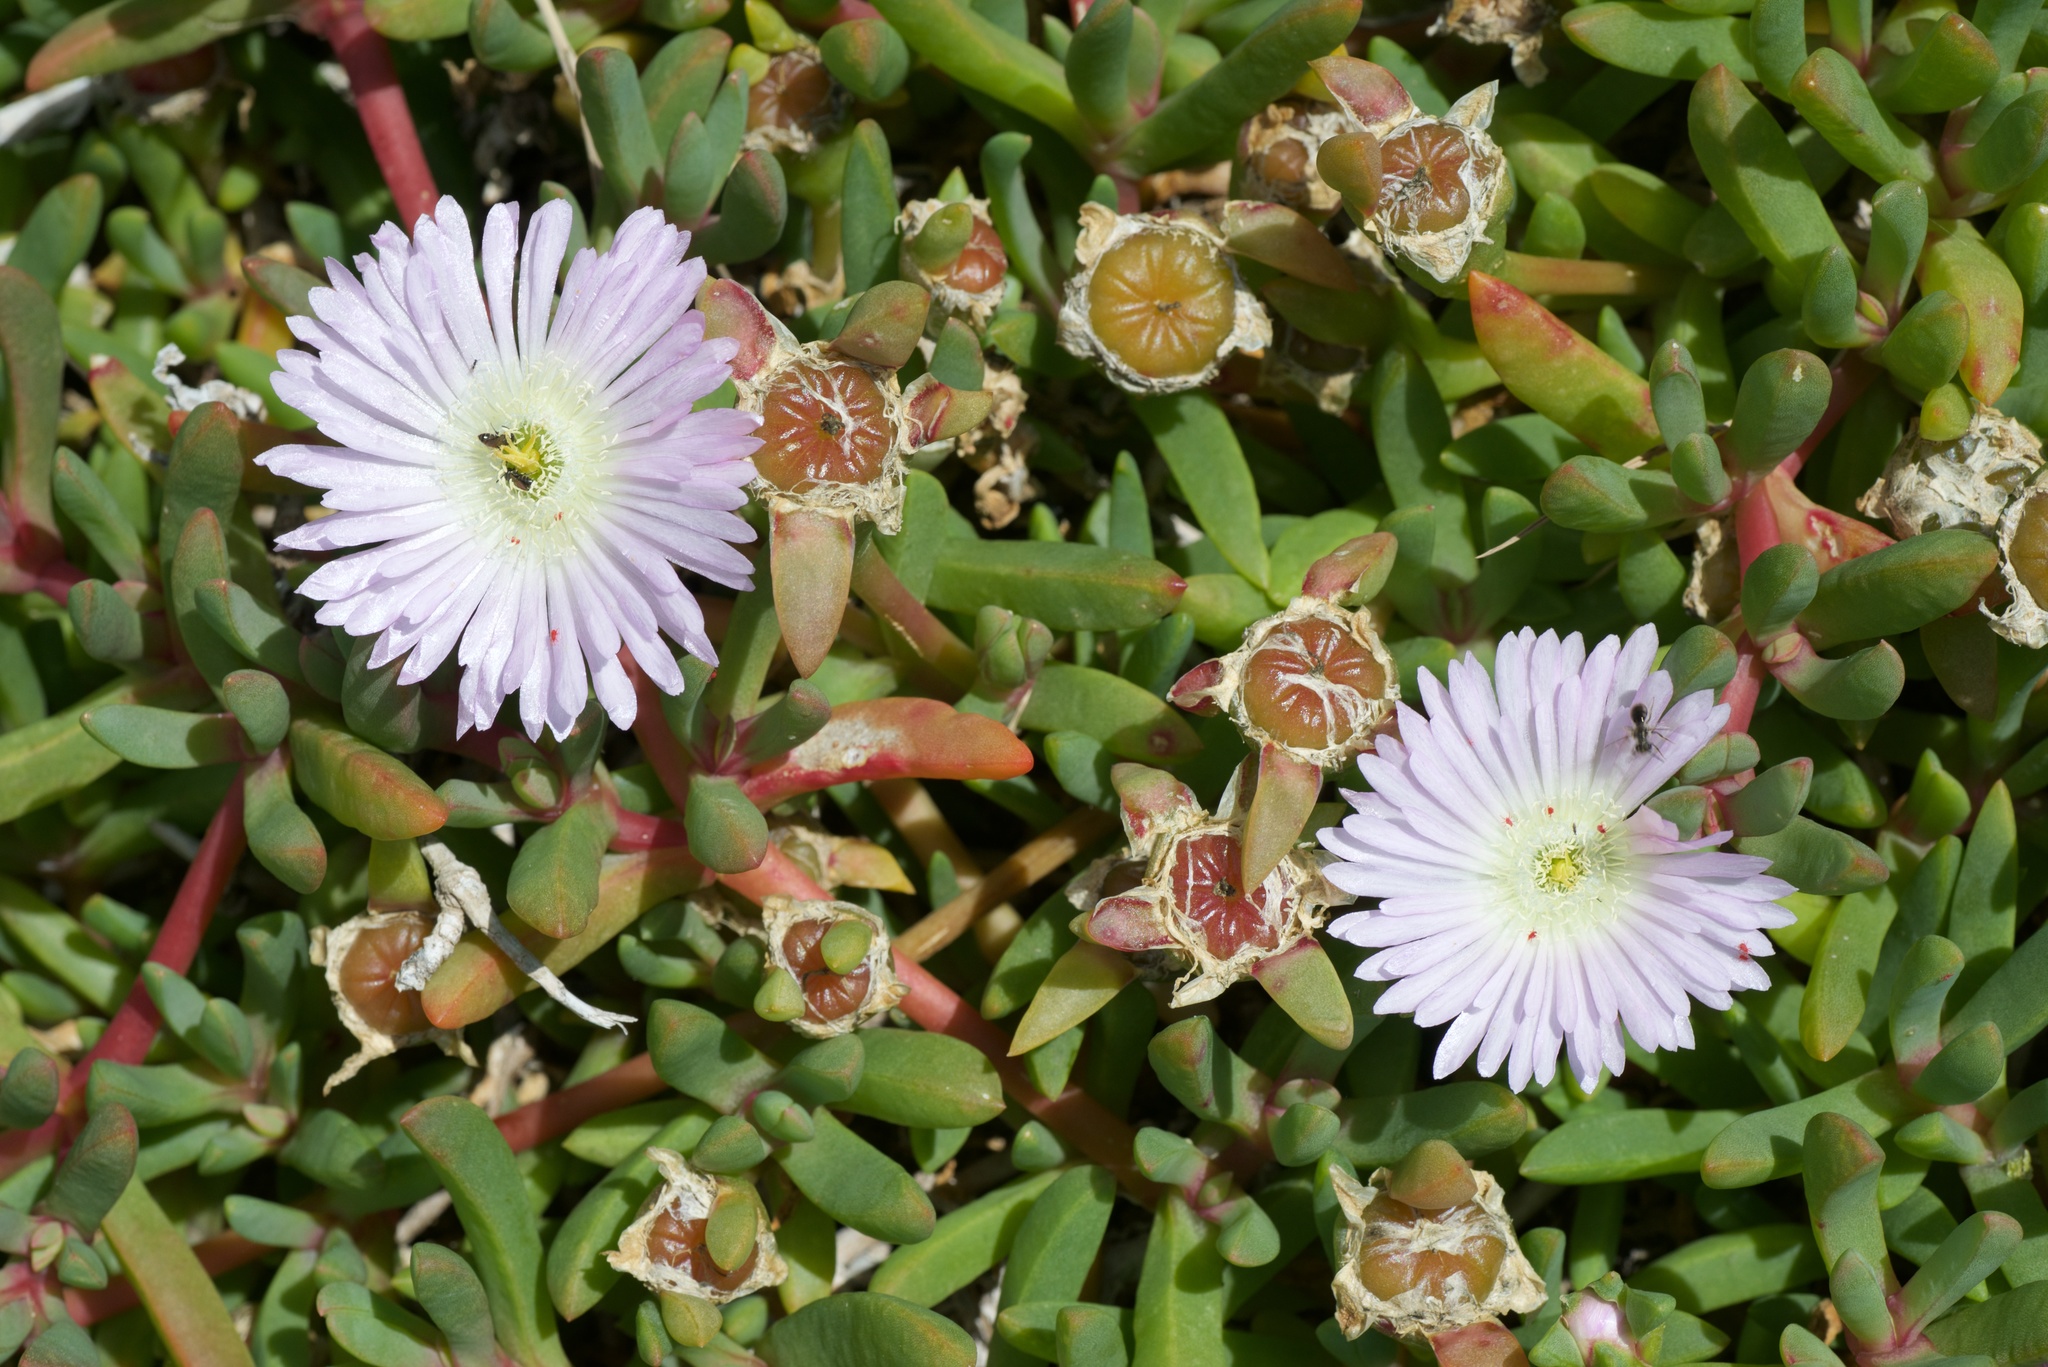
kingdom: Plantae
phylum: Tracheophyta
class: Magnoliopsida
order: Caryophyllales
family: Aizoaceae
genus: Disphyma
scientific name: Disphyma australe
